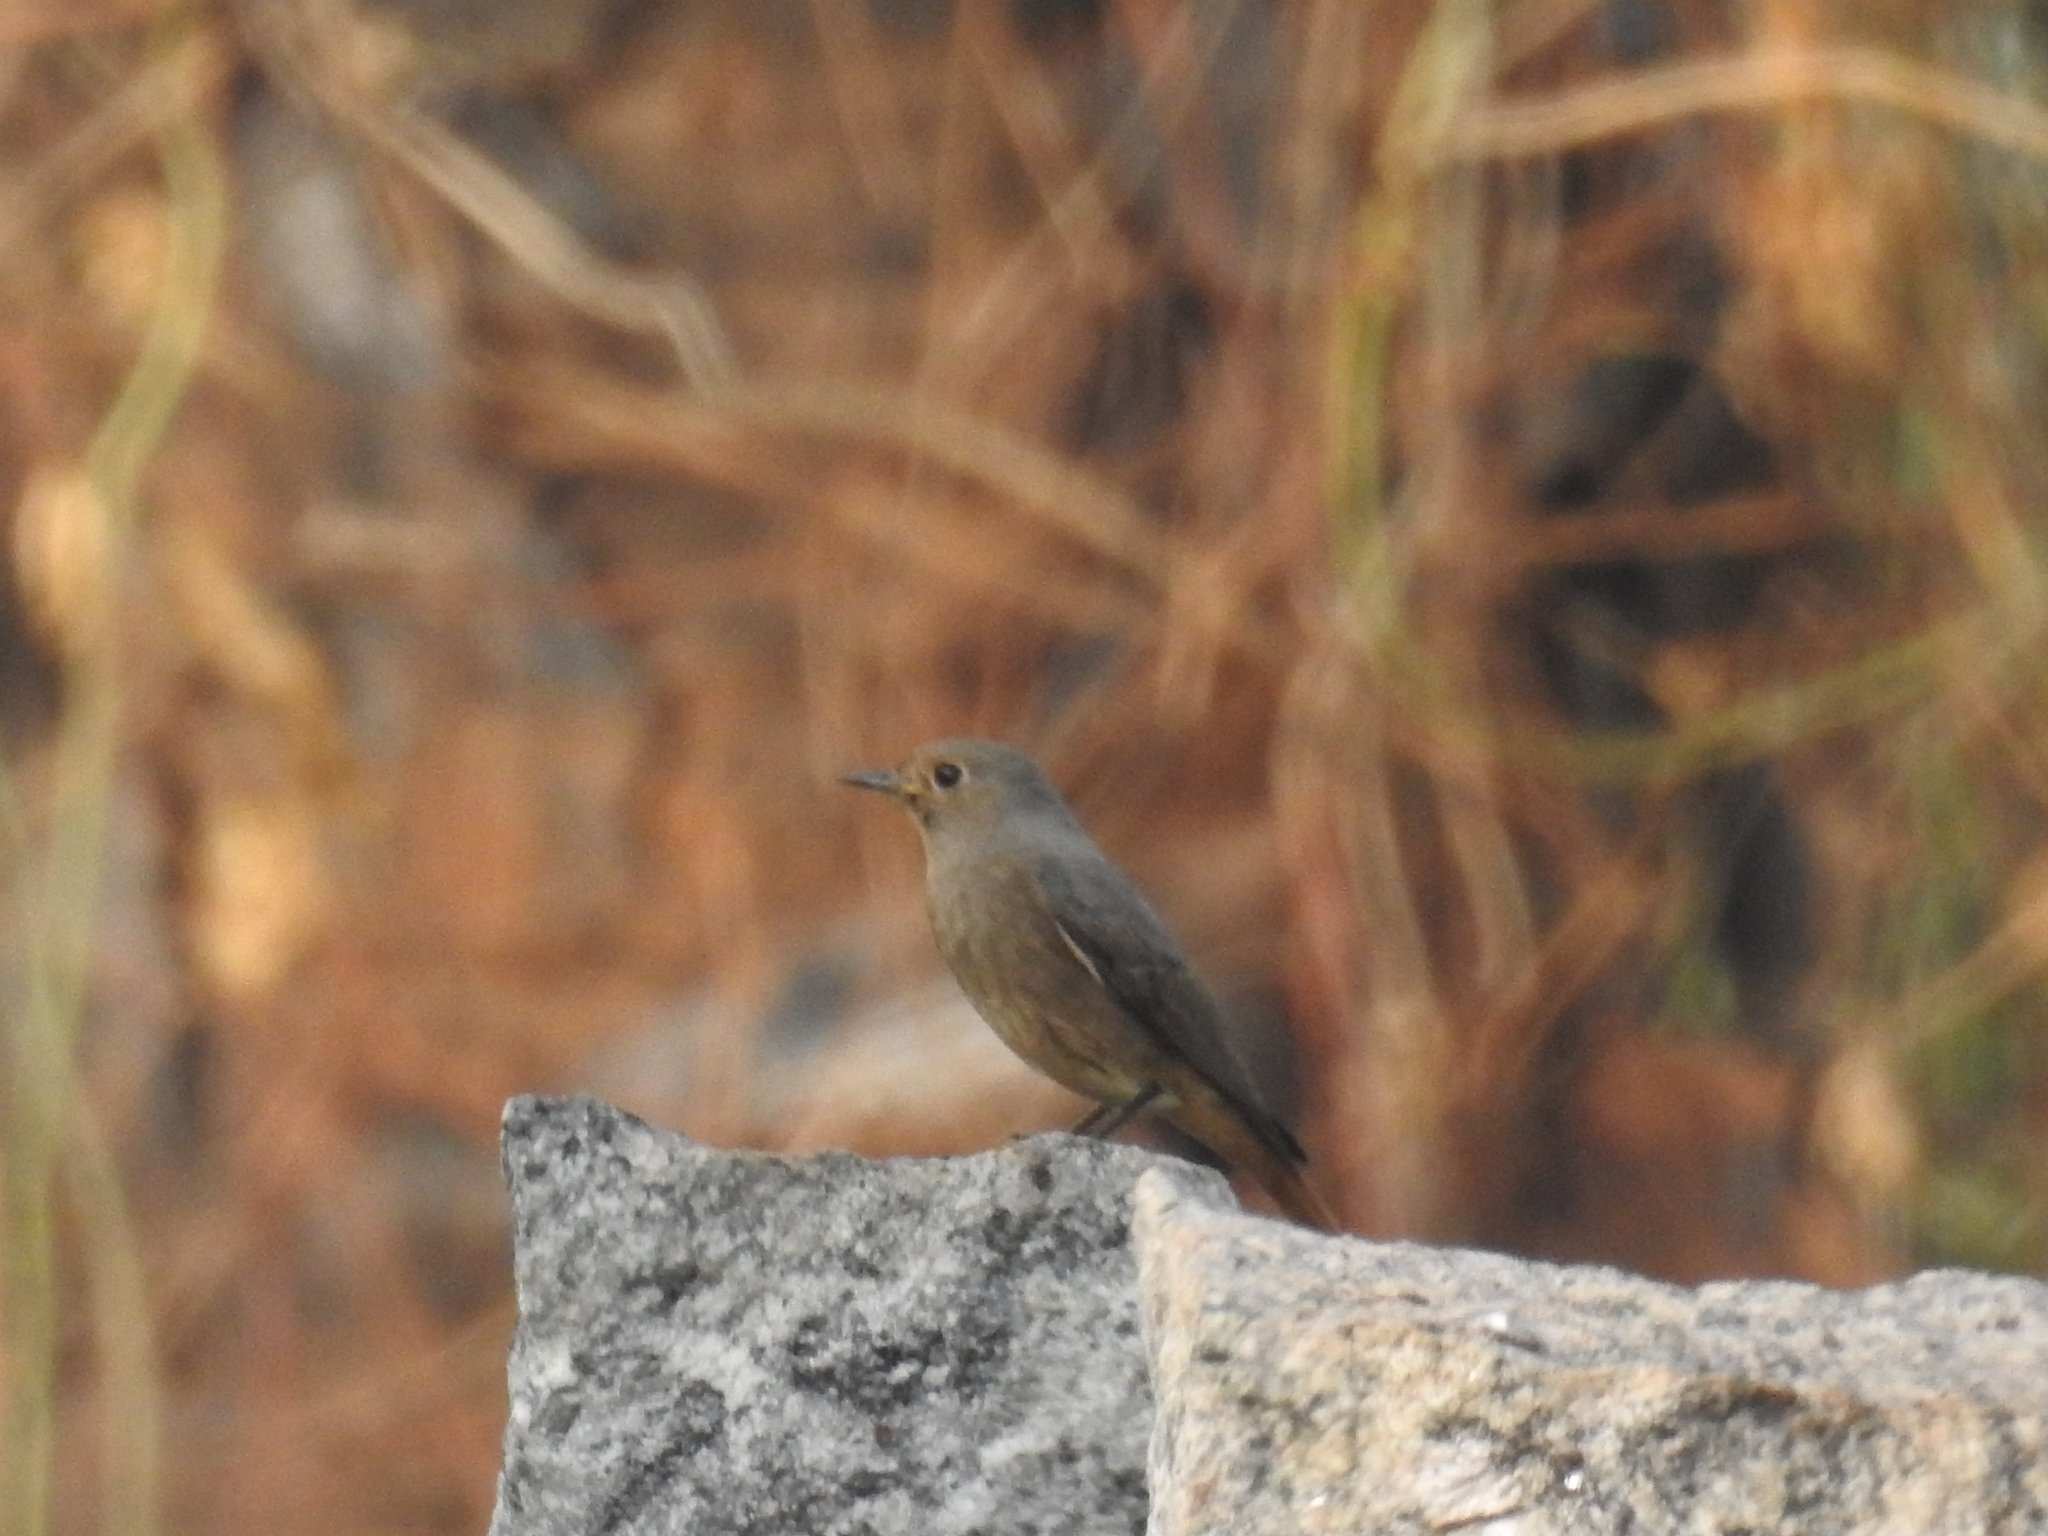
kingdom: Animalia
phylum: Chordata
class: Aves
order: Passeriformes
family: Muscicapidae
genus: Phoenicurus
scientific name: Phoenicurus ochruros
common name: Black redstart
